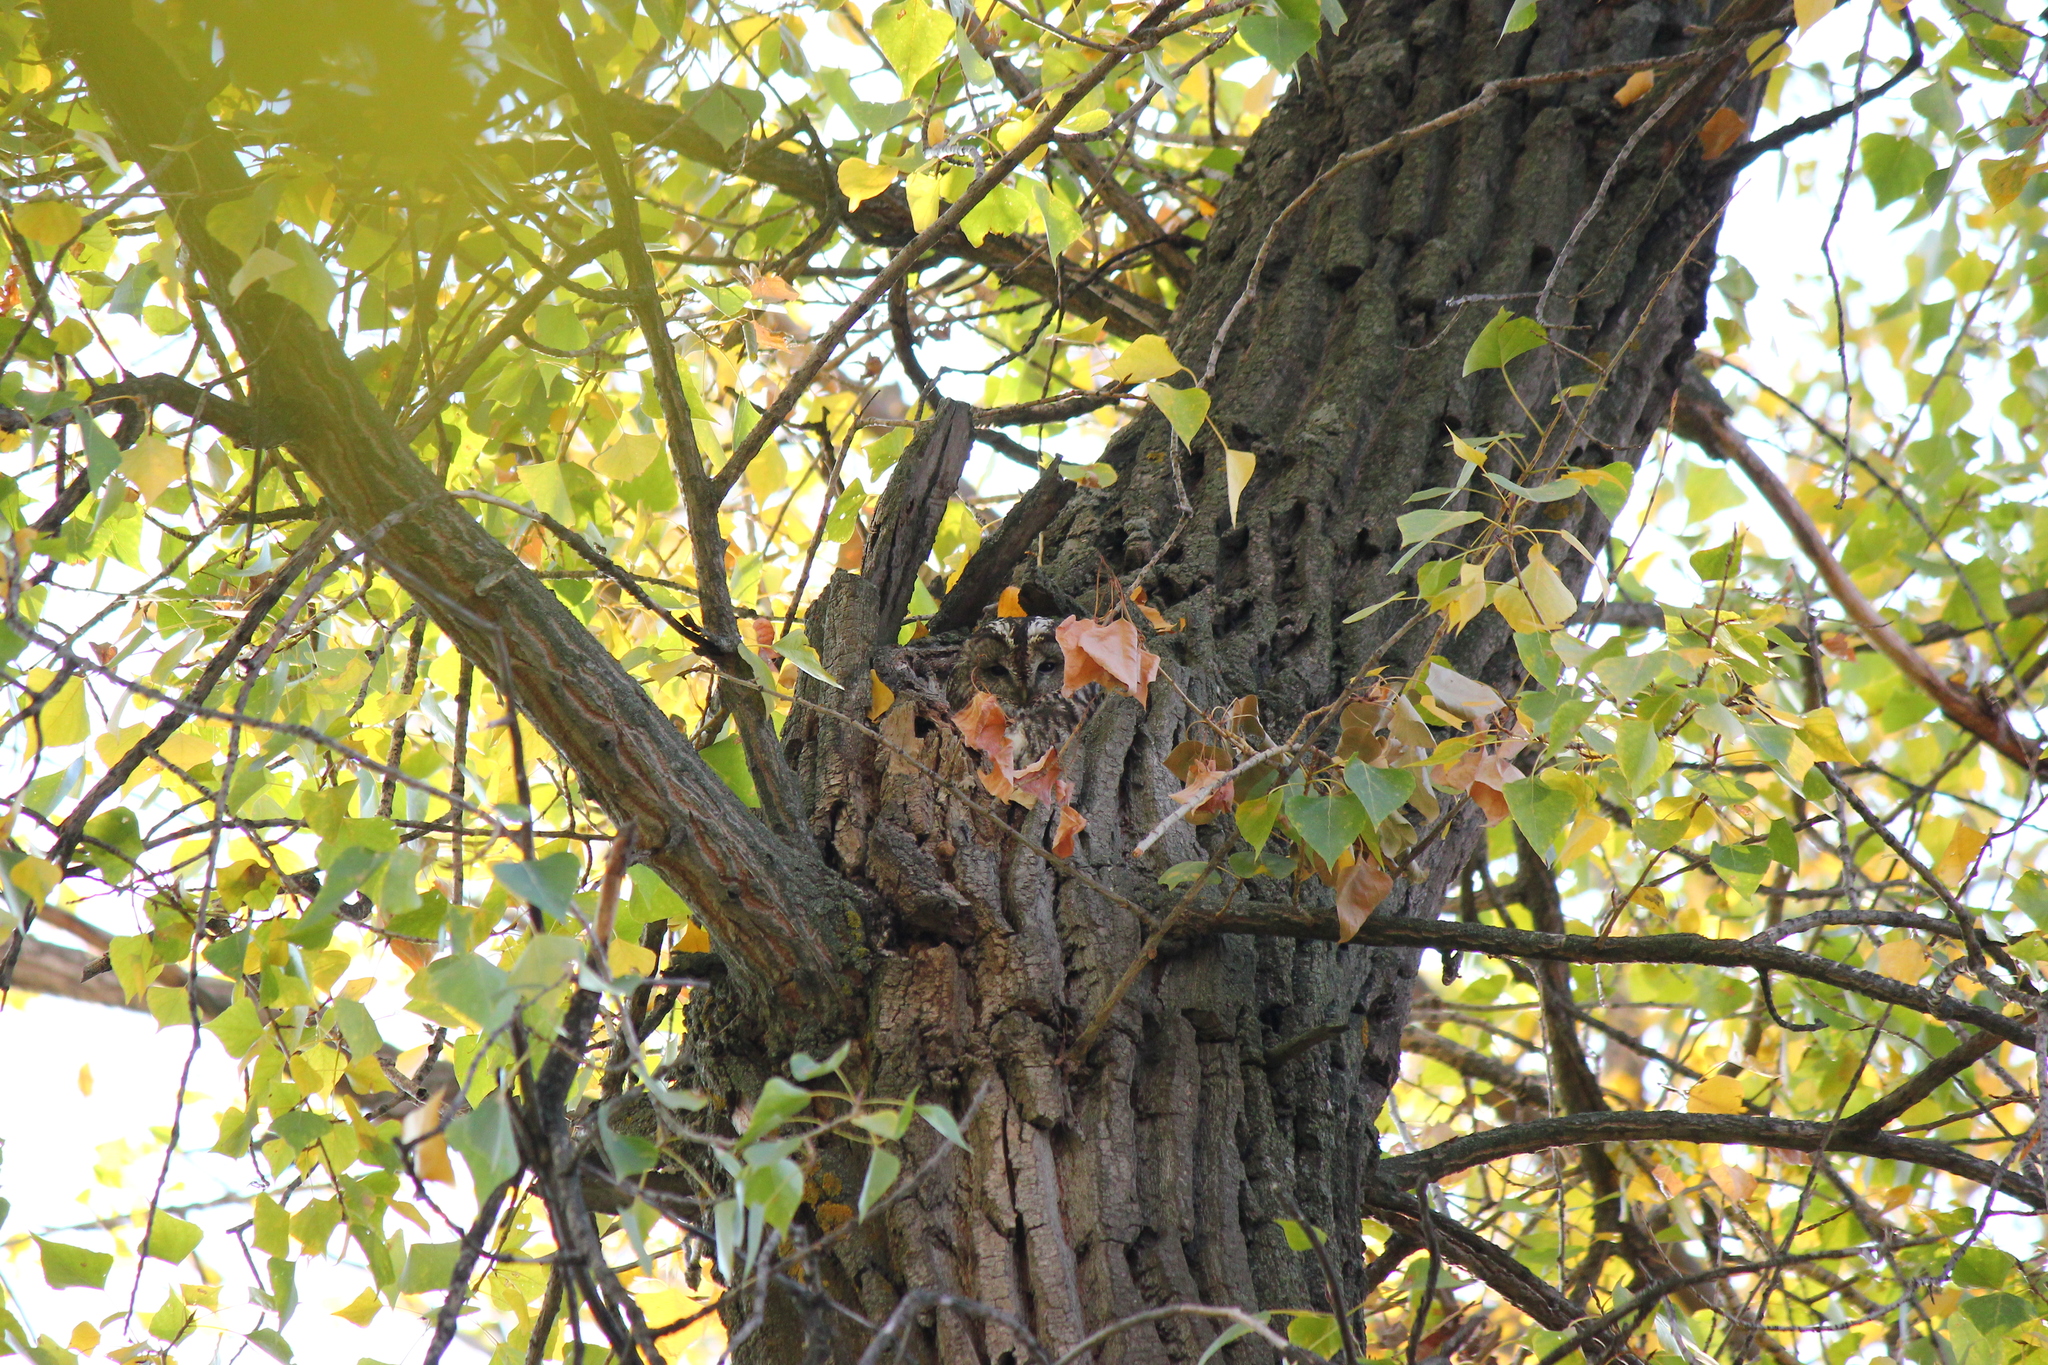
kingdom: Animalia
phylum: Chordata
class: Aves
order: Strigiformes
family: Strigidae
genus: Strix
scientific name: Strix aluco
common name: Tawny owl
